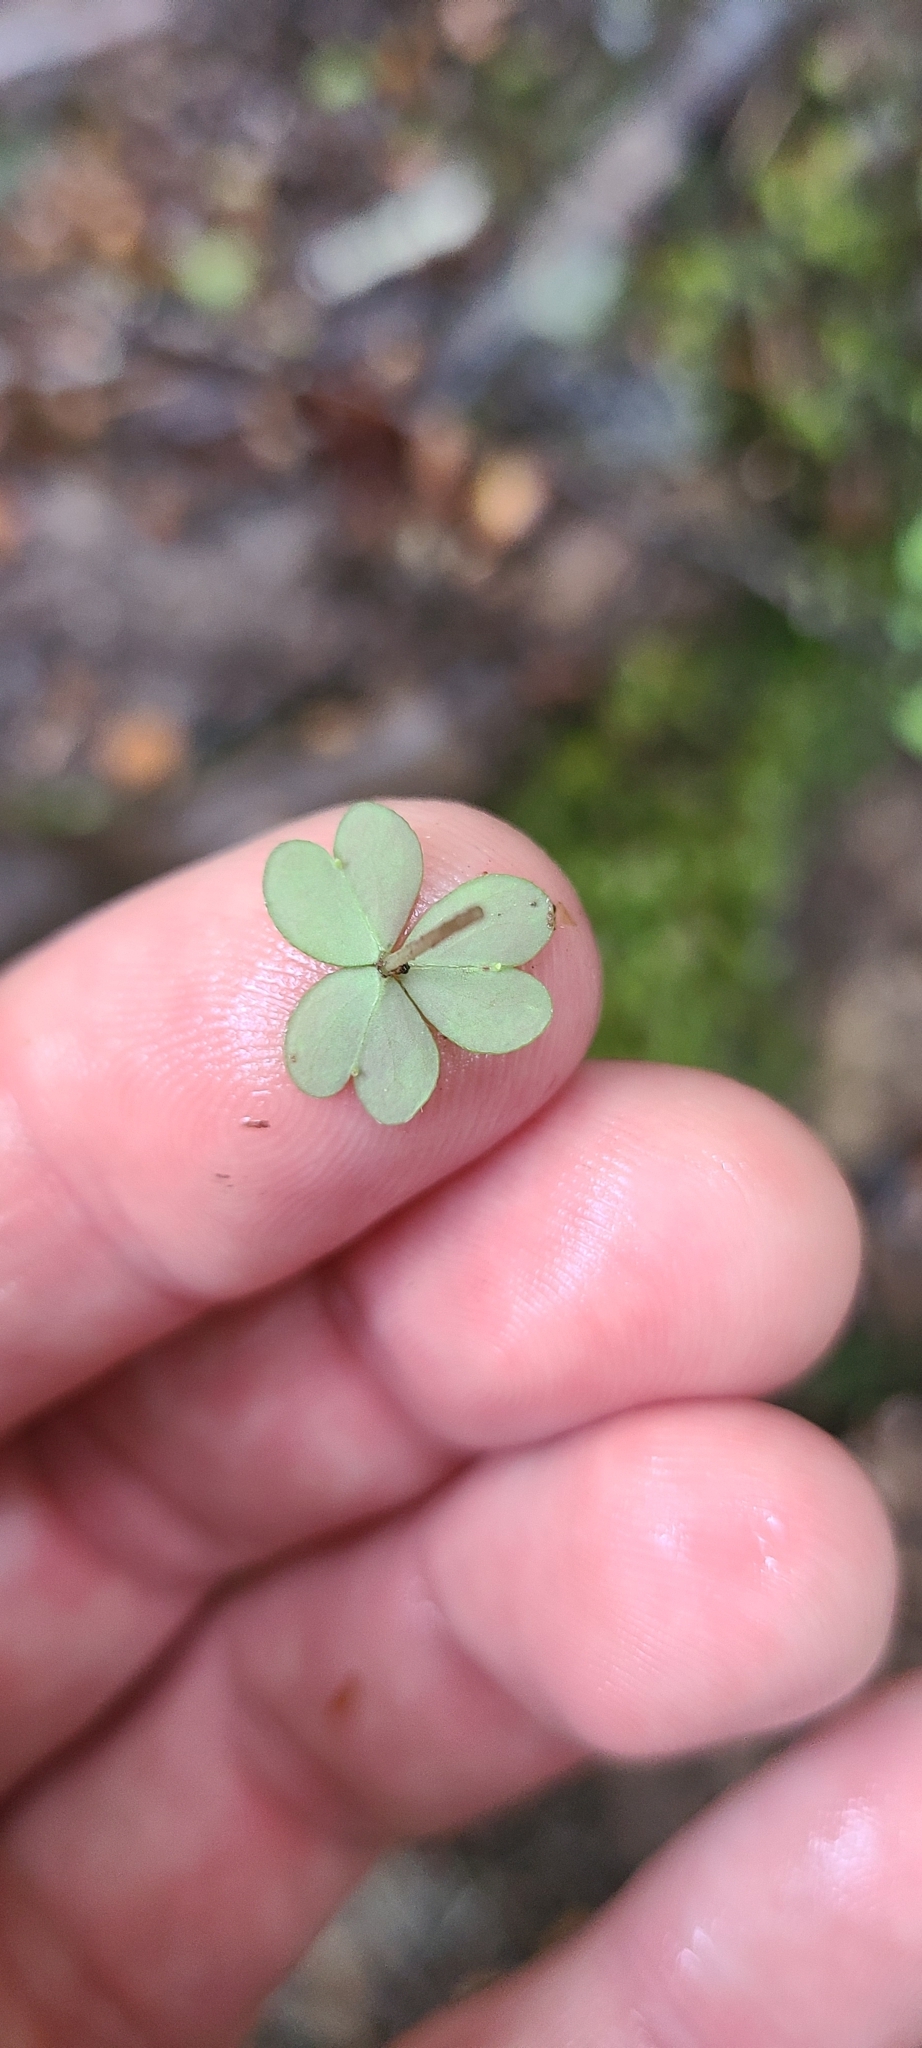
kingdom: Plantae
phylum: Tracheophyta
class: Magnoliopsida
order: Oxalidales
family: Oxalidaceae
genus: Oxalis
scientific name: Oxalis magellanica
